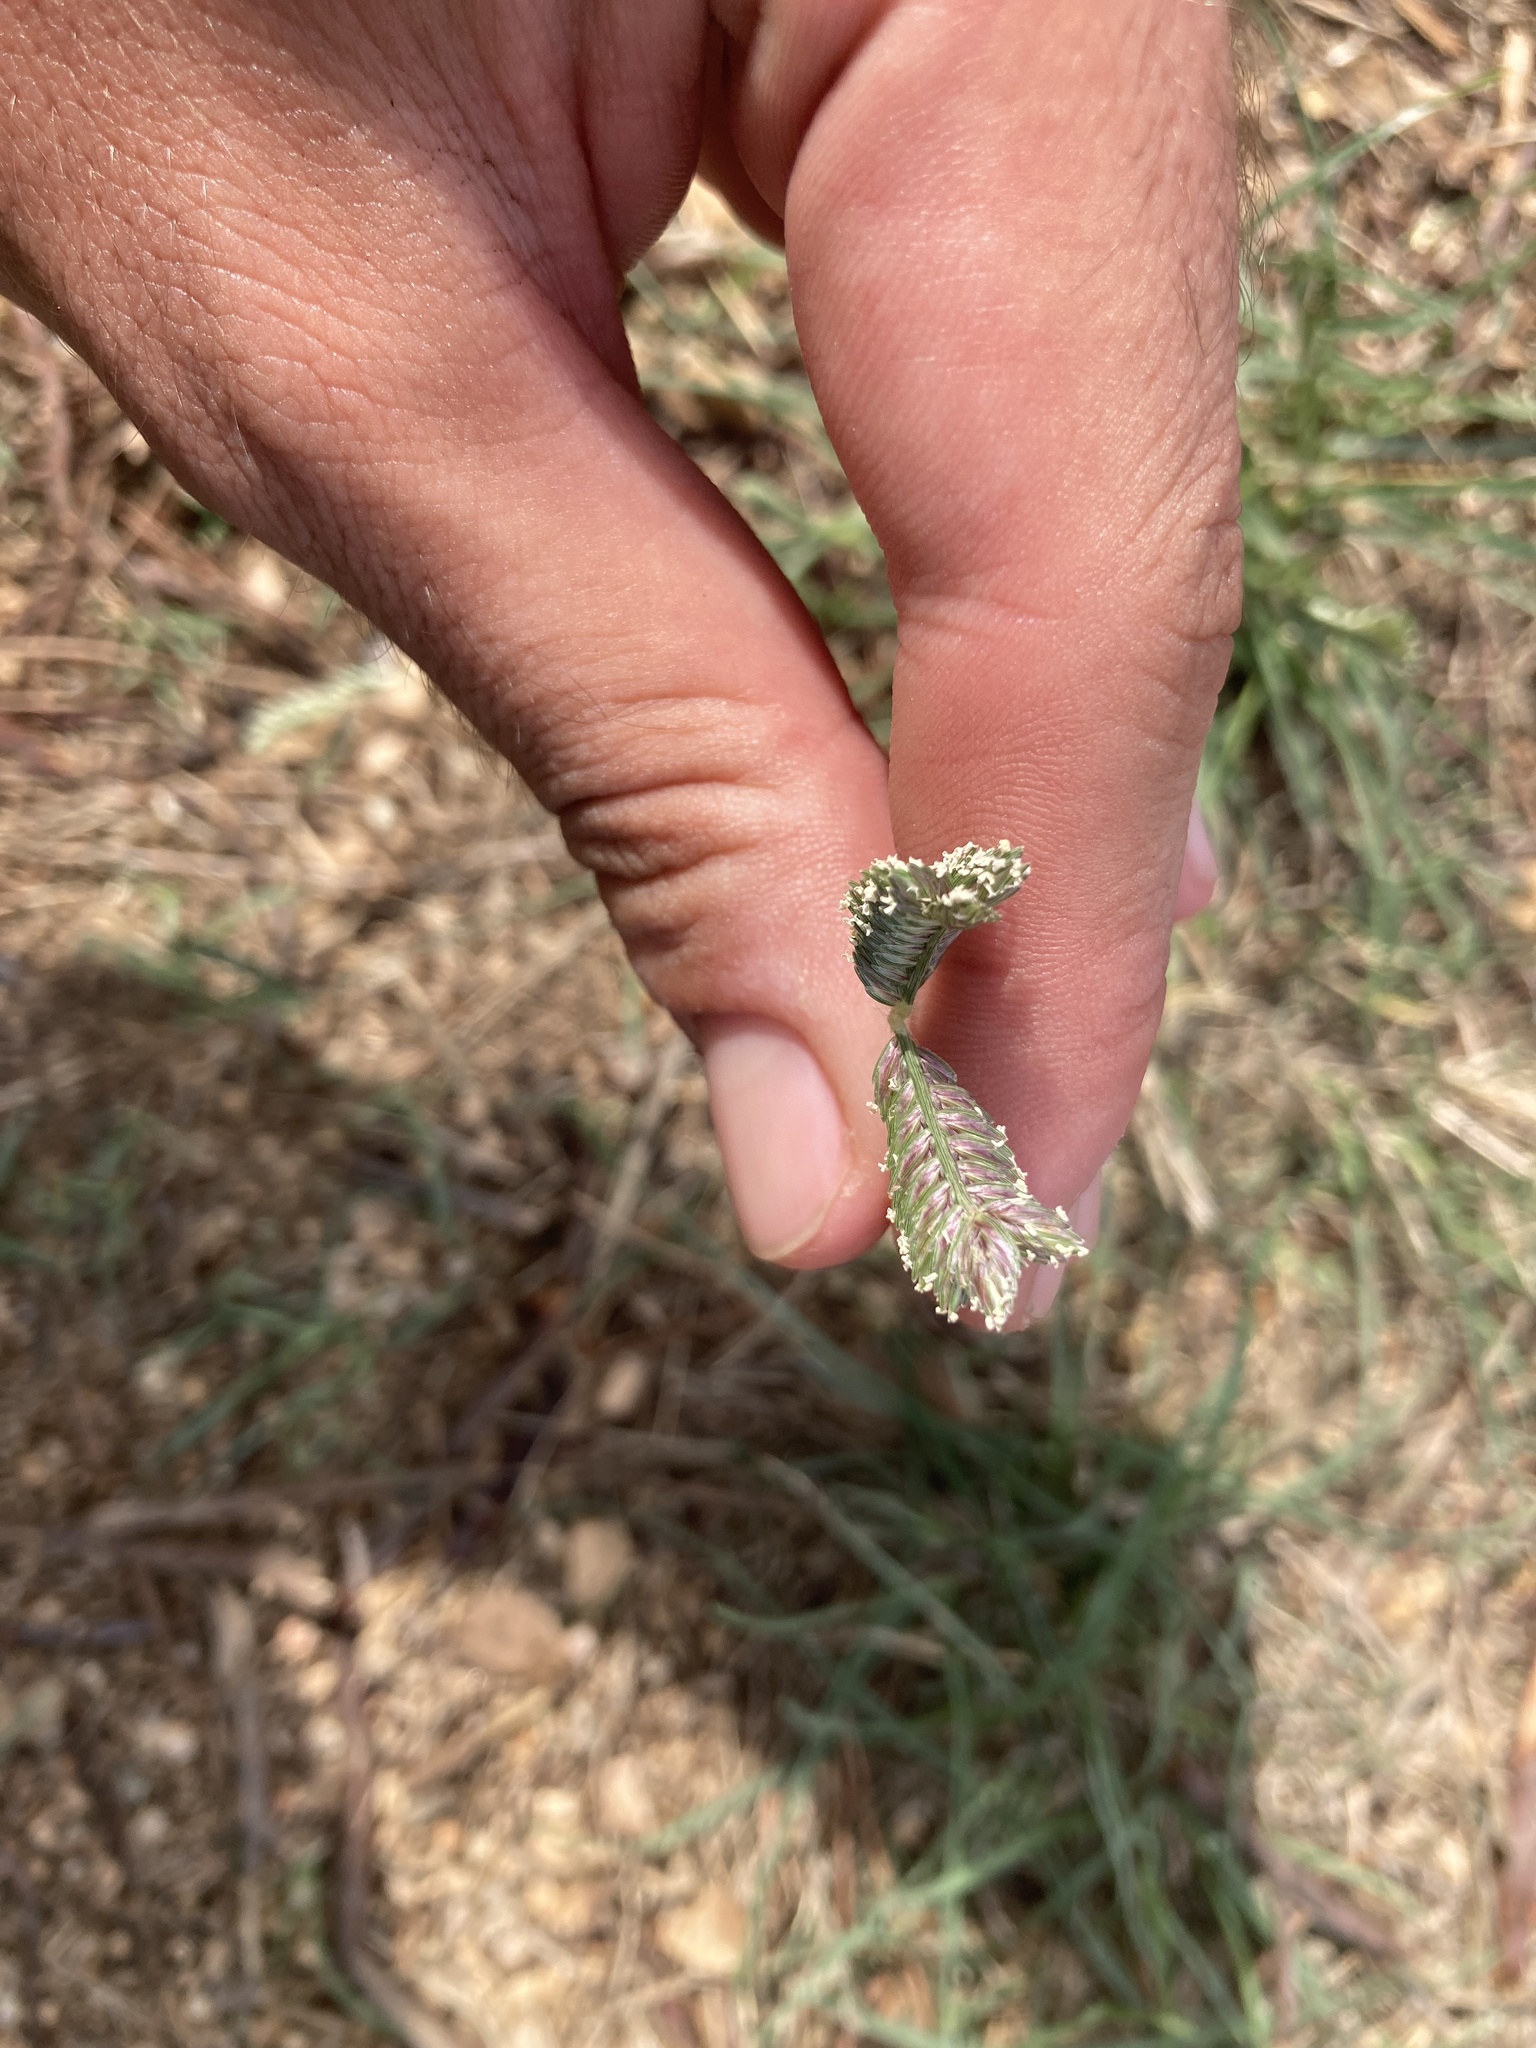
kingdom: Plantae
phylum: Tracheophyta
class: Liliopsida
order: Poales
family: Poaceae
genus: Eleusine
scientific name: Eleusine tristachya
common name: American yard-grass
